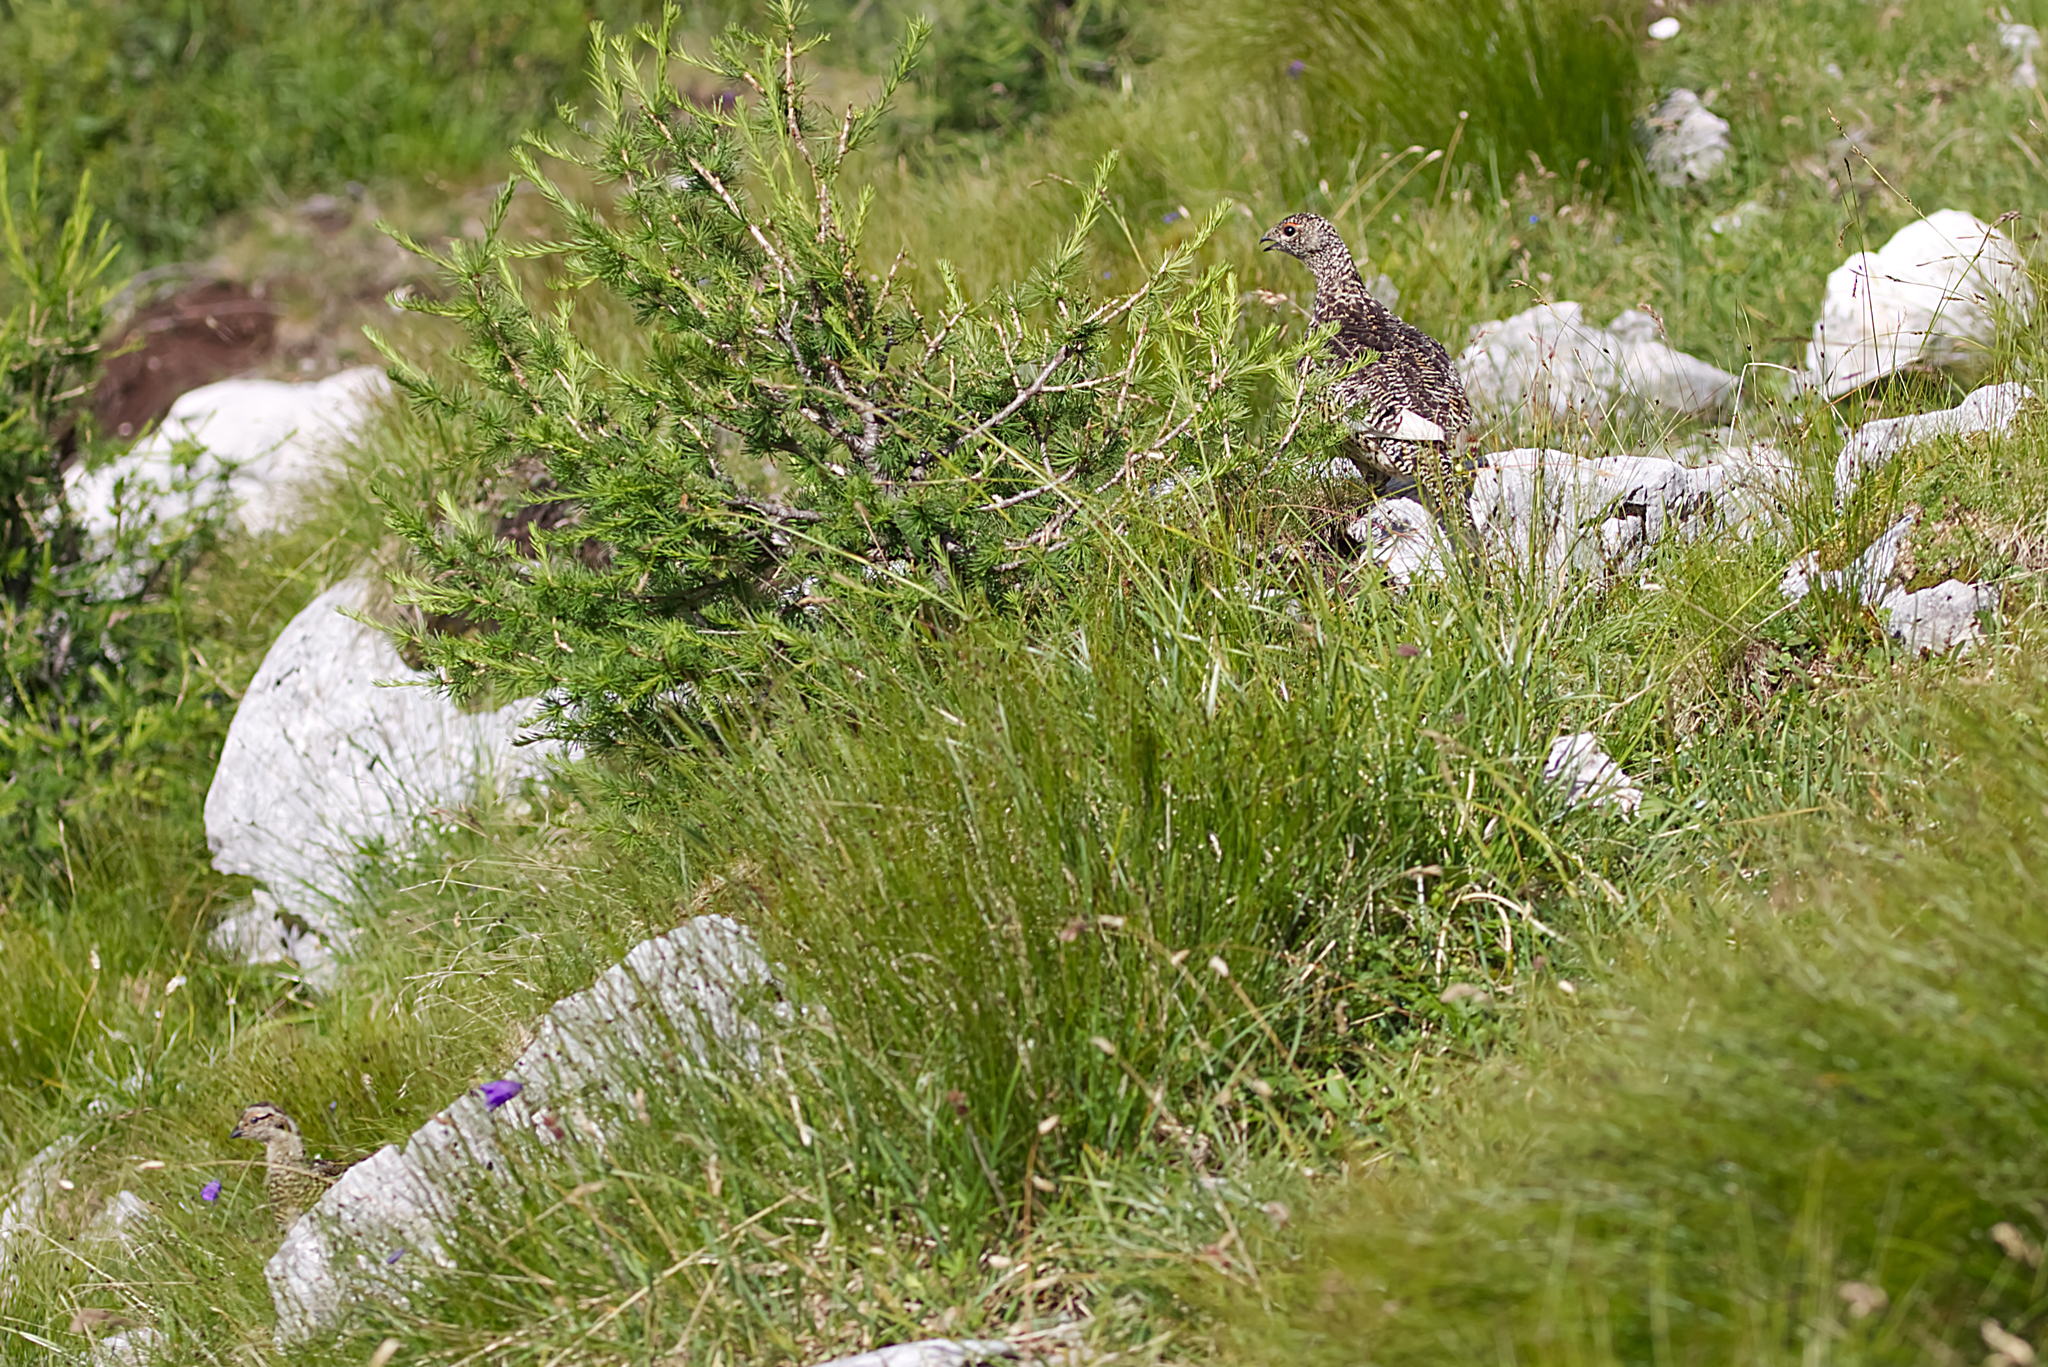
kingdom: Animalia
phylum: Chordata
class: Aves
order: Galliformes
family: Phasianidae
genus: Lagopus
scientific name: Lagopus muta
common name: Rock ptarmigan
